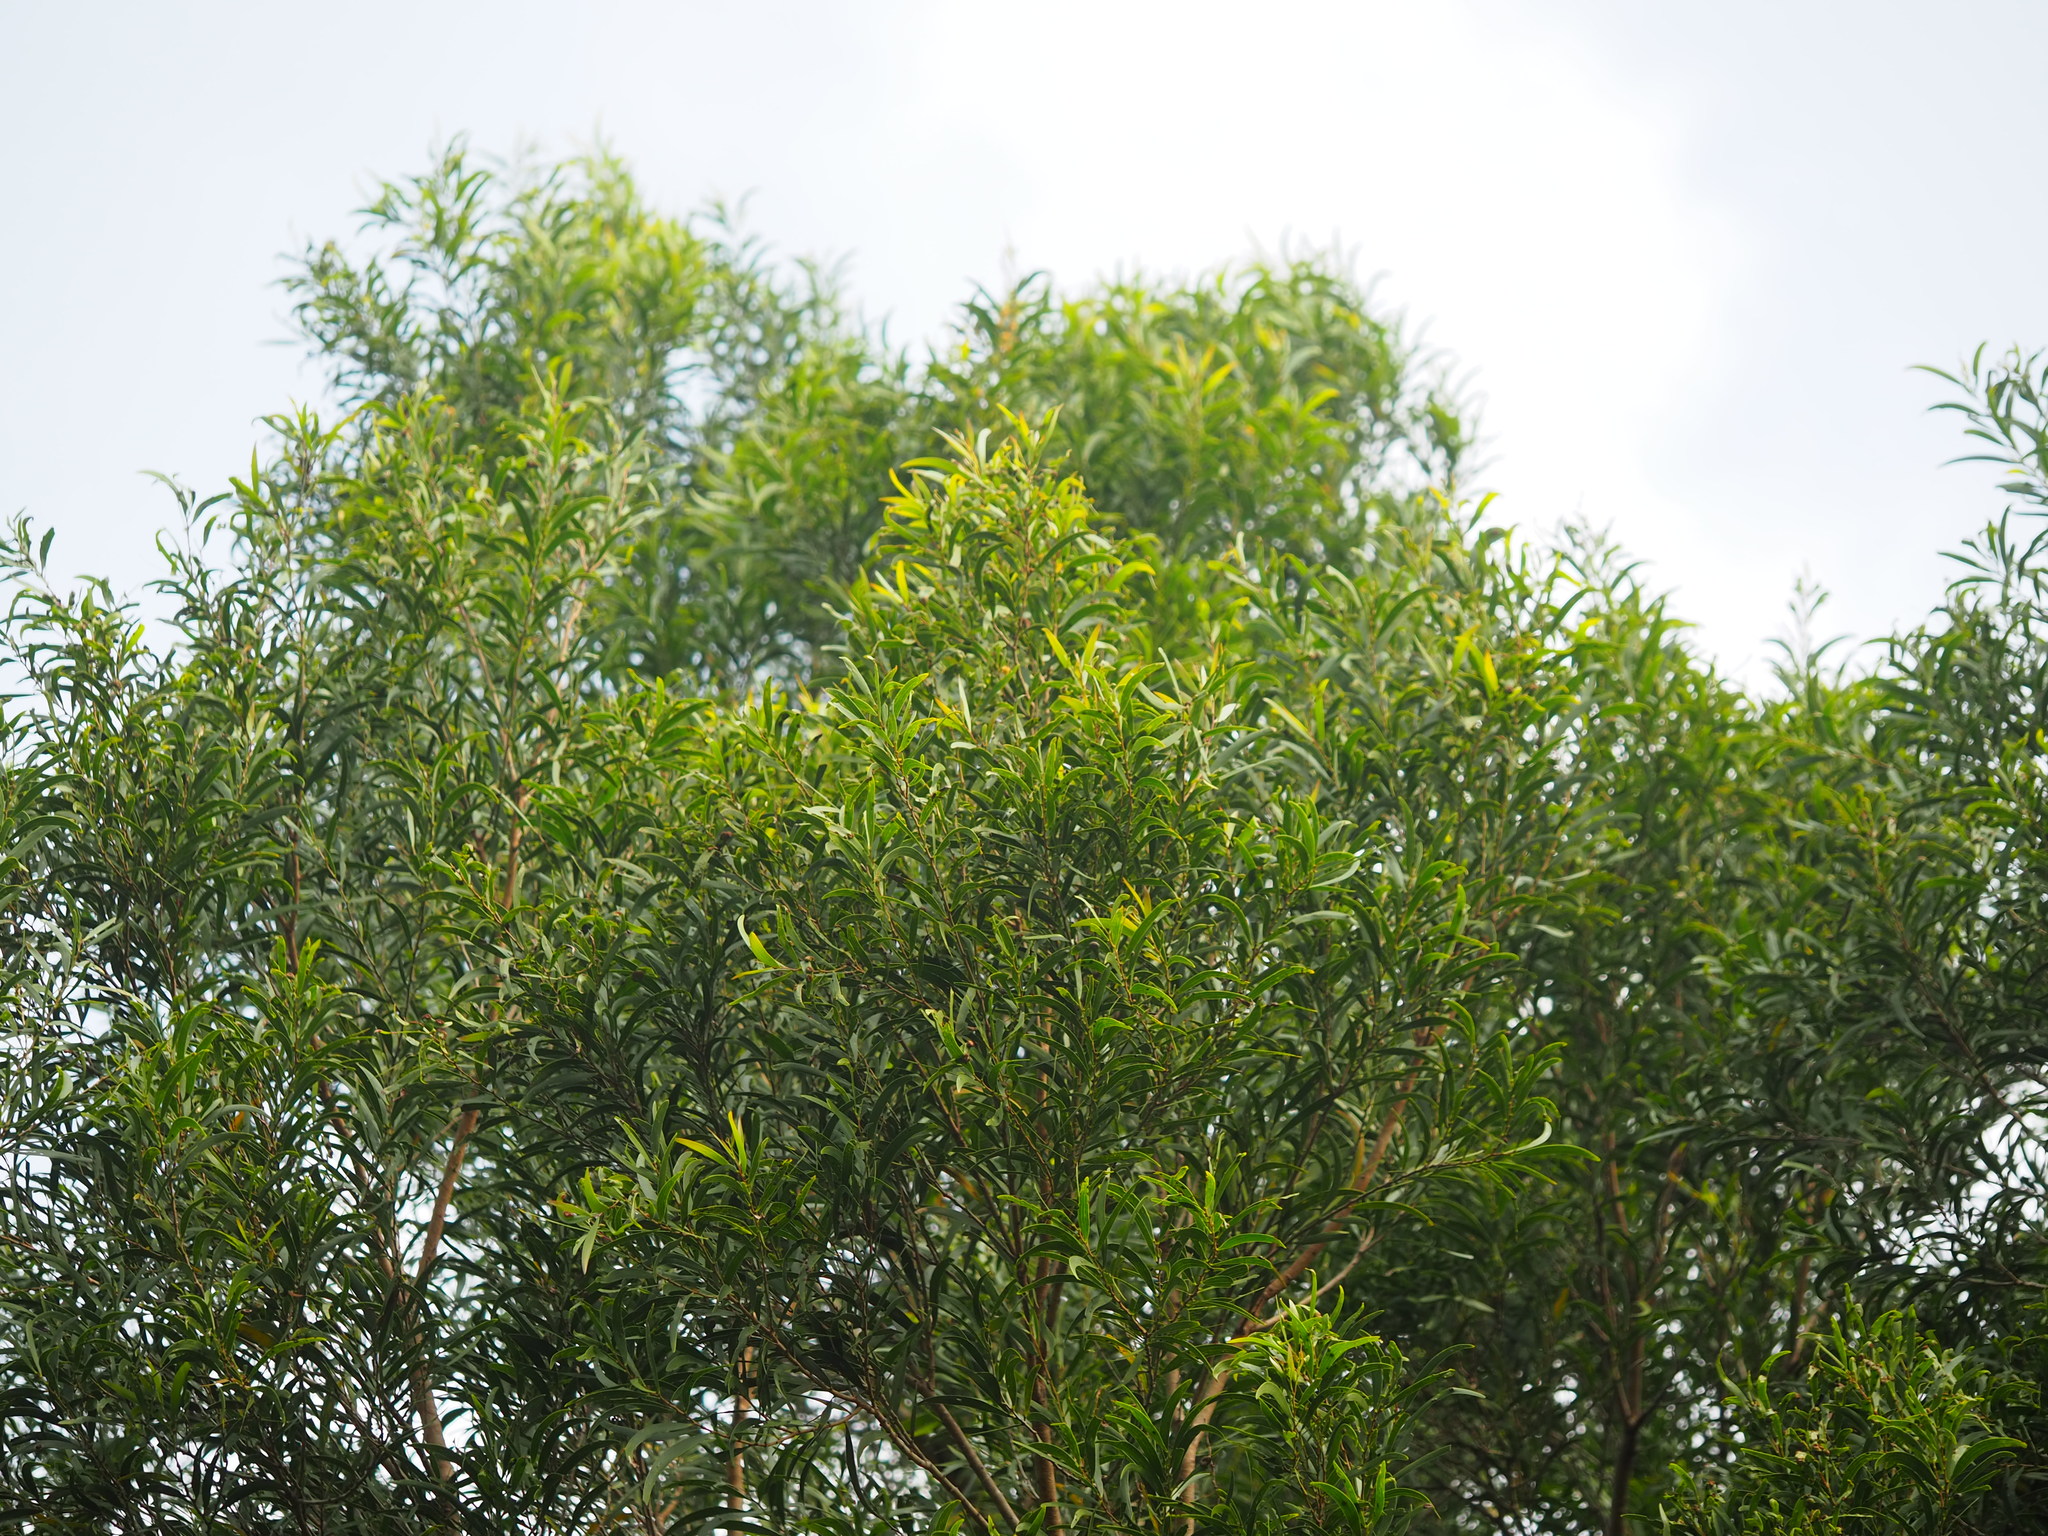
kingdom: Plantae
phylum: Tracheophyta
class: Magnoliopsida
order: Fabales
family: Fabaceae
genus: Acacia
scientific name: Acacia confusa
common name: Formosan koa
